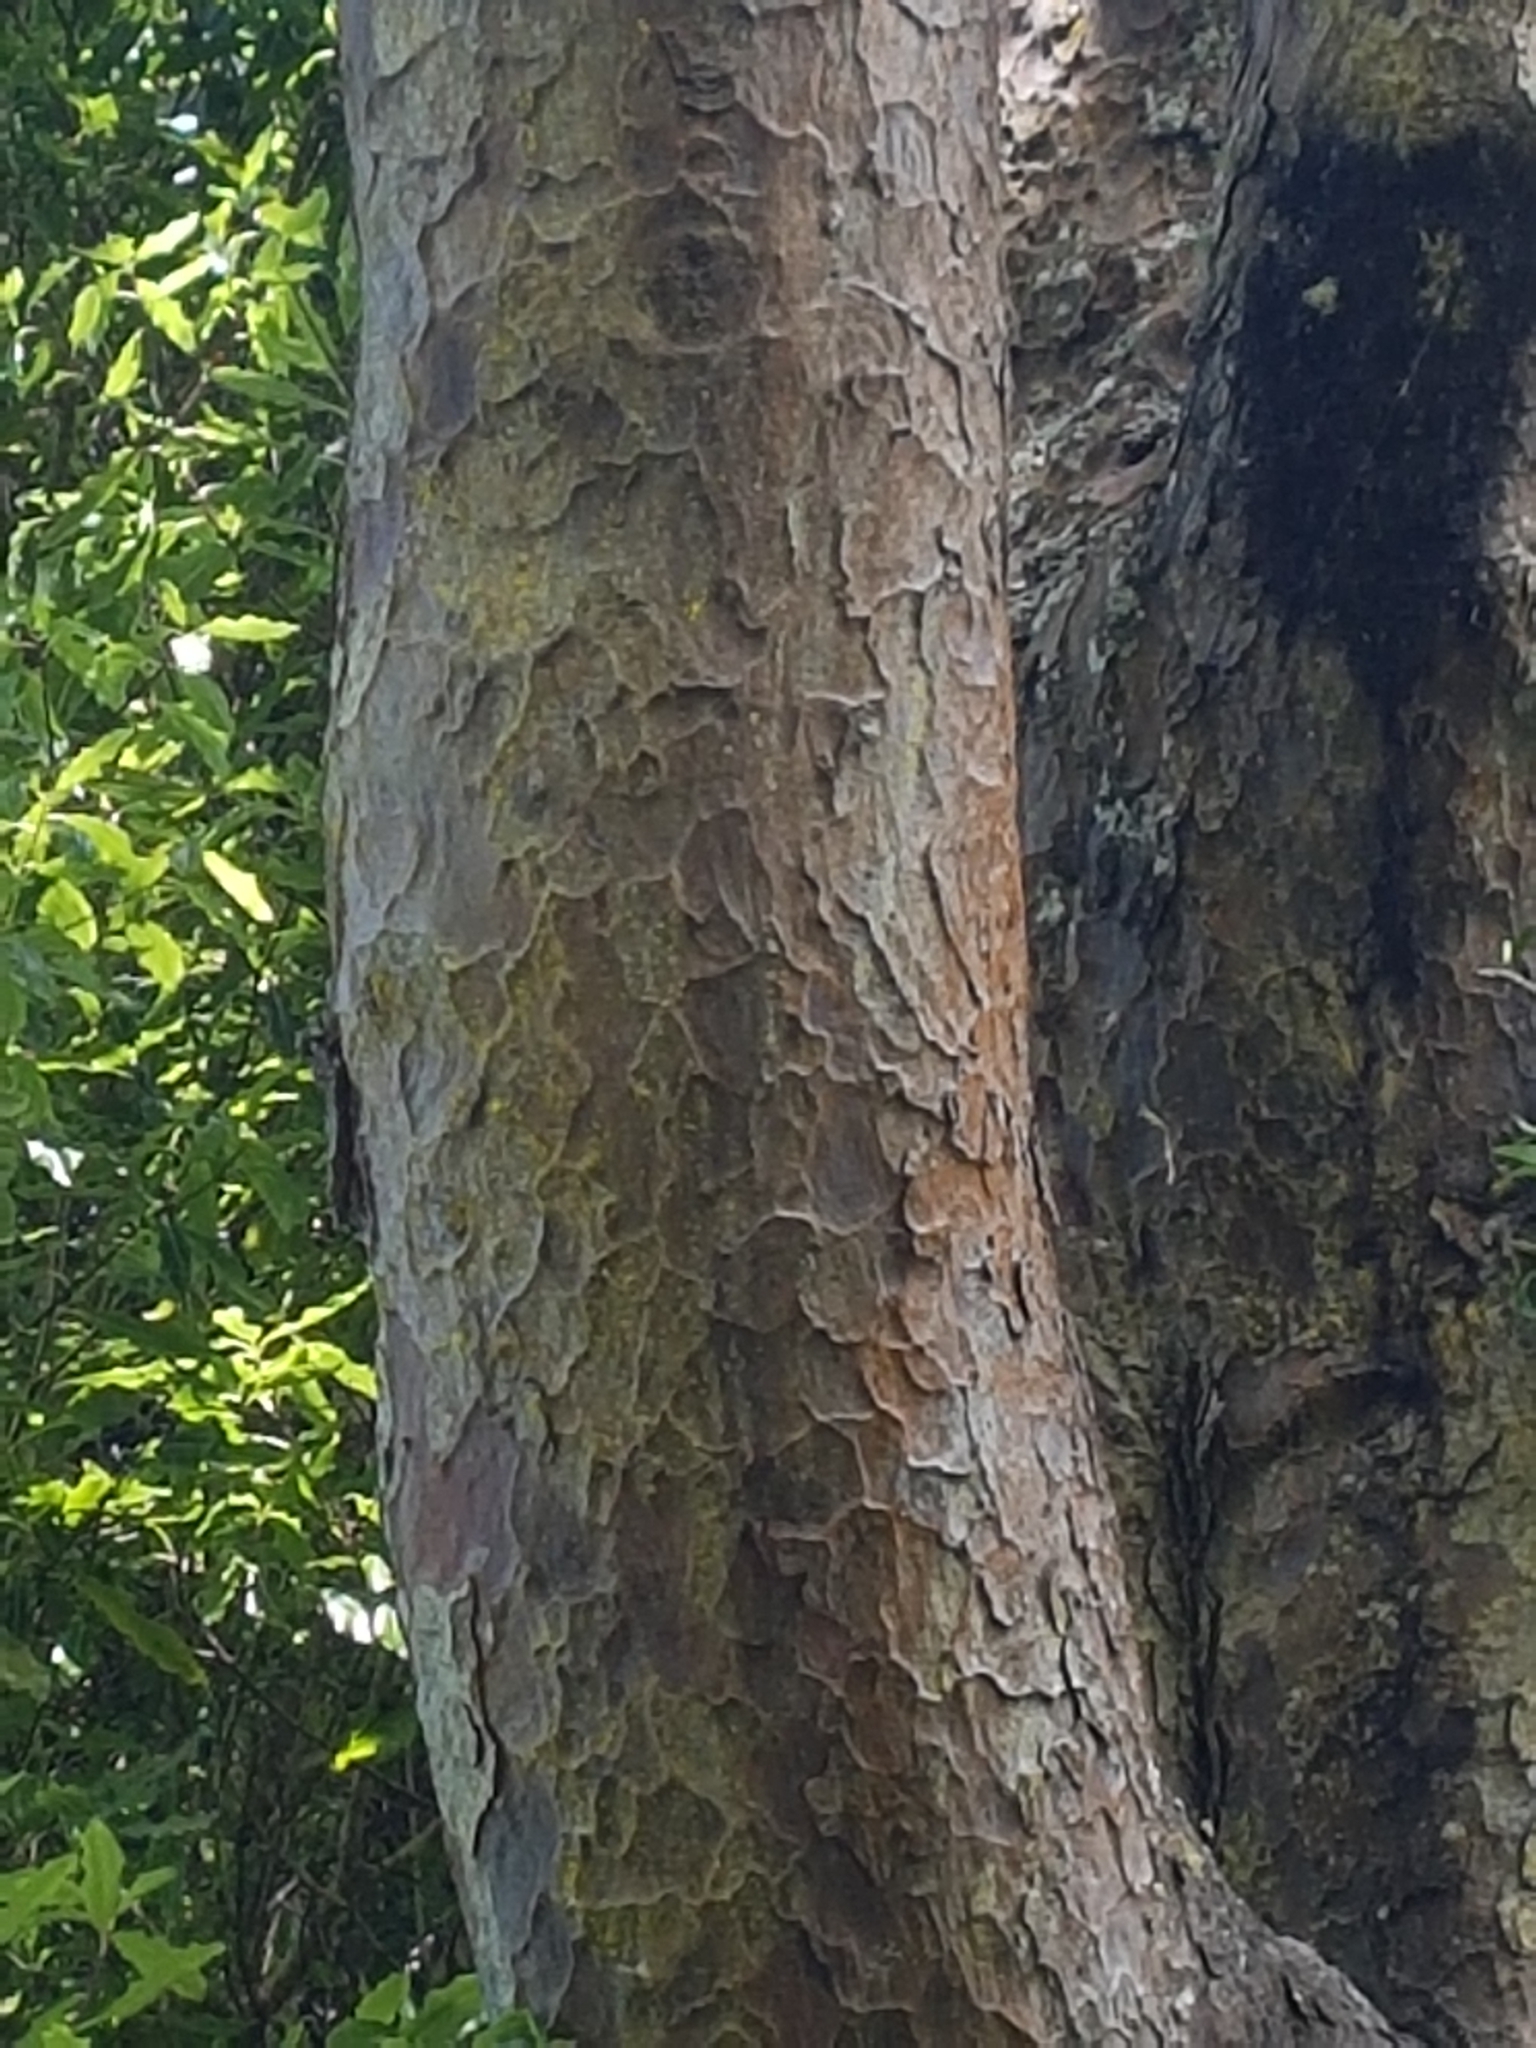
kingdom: Plantae
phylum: Tracheophyta
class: Pinopsida
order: Pinales
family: Podocarpaceae
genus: Prumnopitys
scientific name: Prumnopitys taxifolia
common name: Matai
